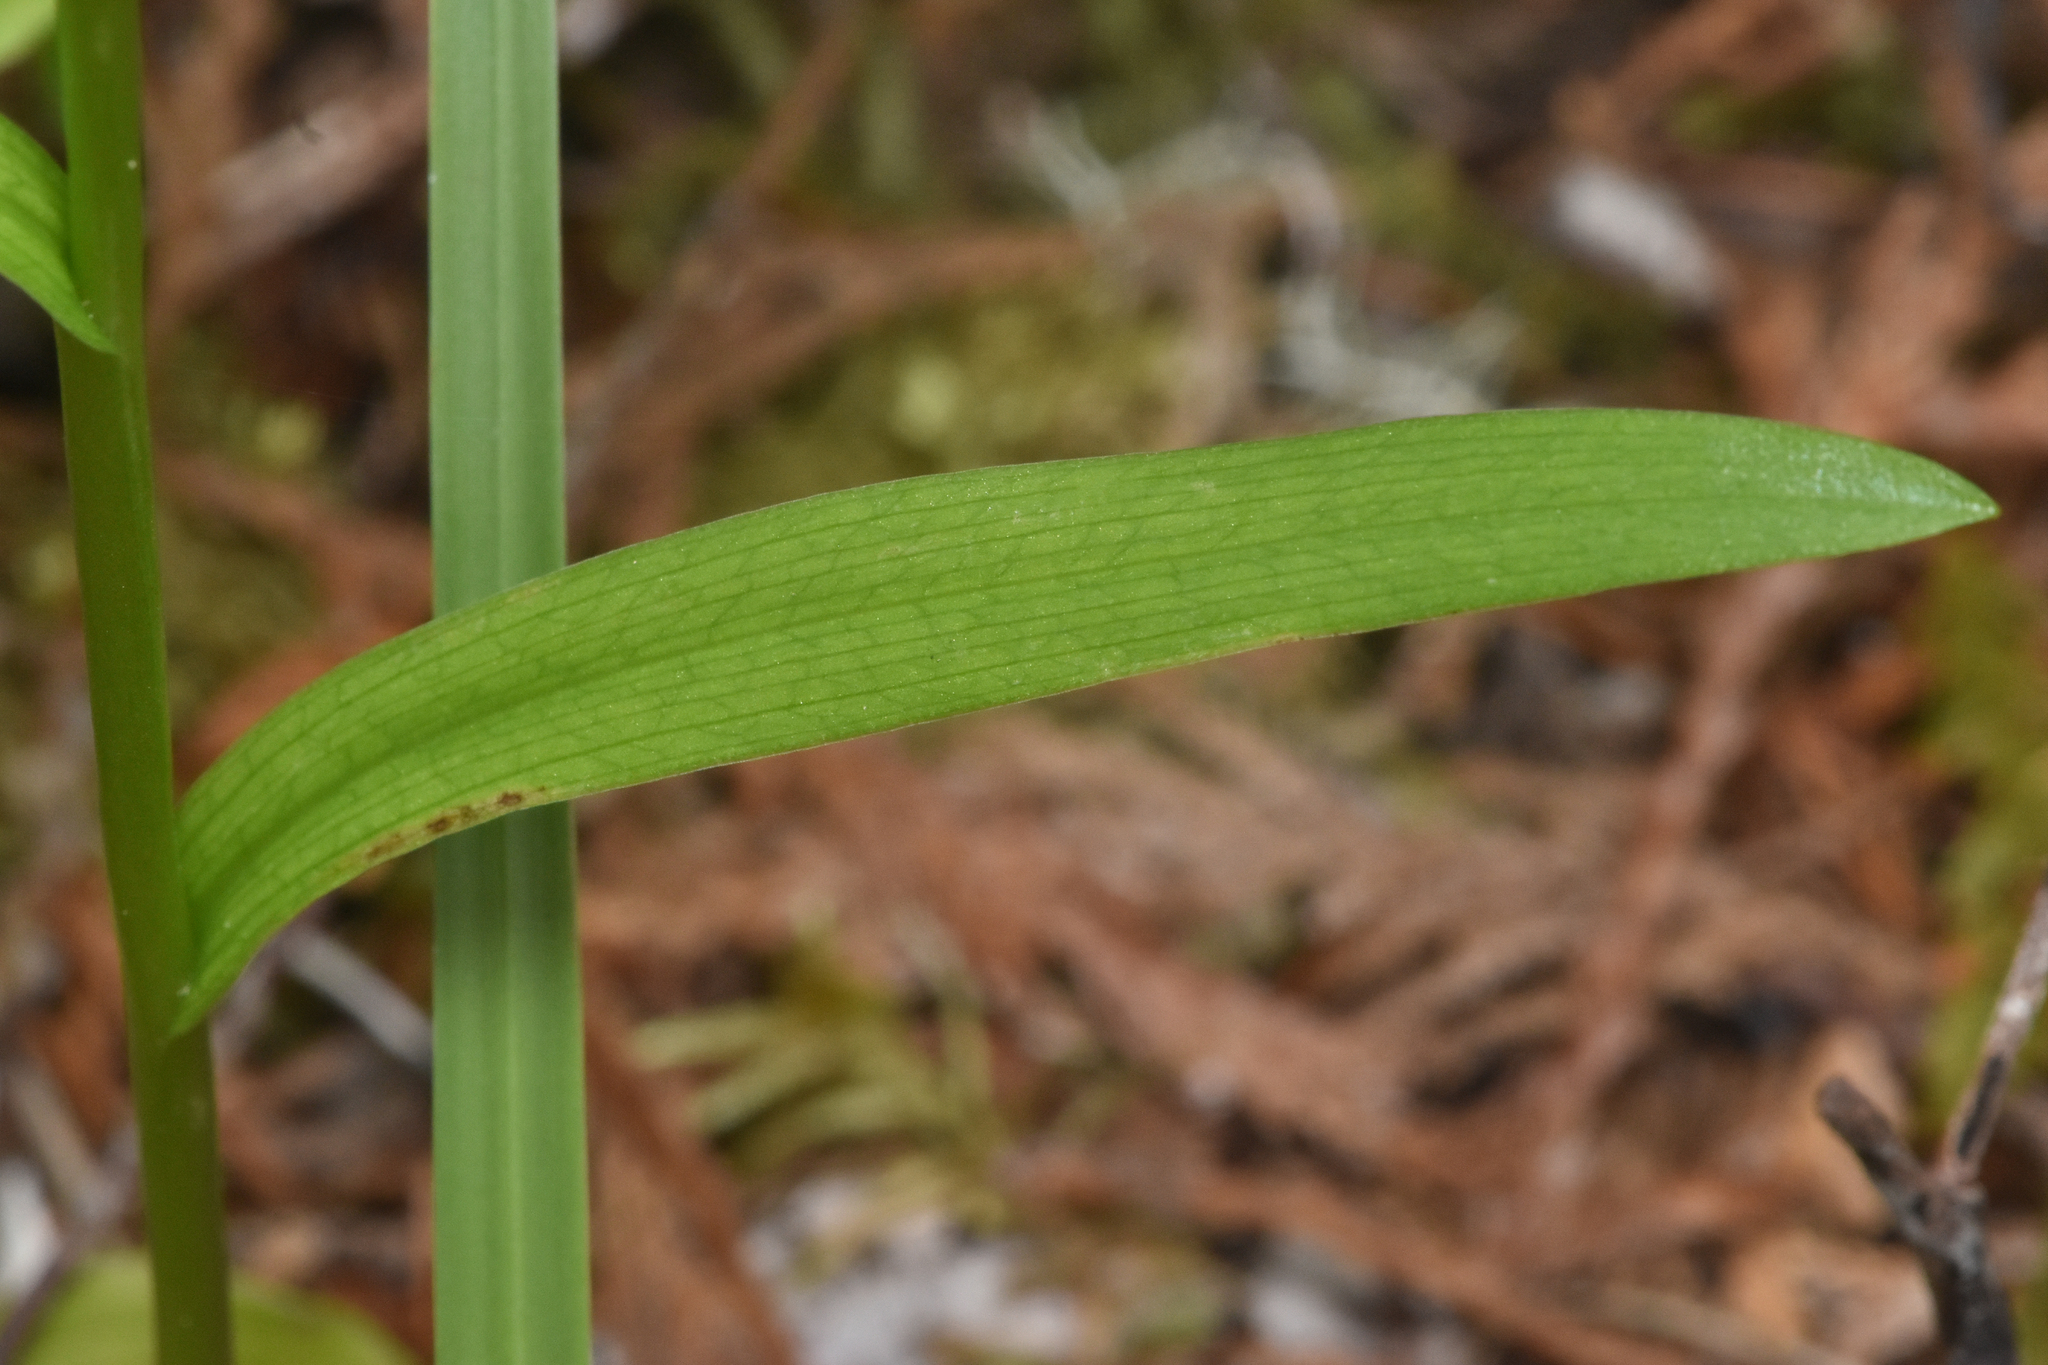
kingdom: Plantae
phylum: Tracheophyta
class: Liliopsida
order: Asparagales
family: Orchidaceae
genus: Platanthera
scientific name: Platanthera stricta
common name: Slender bog orchid
